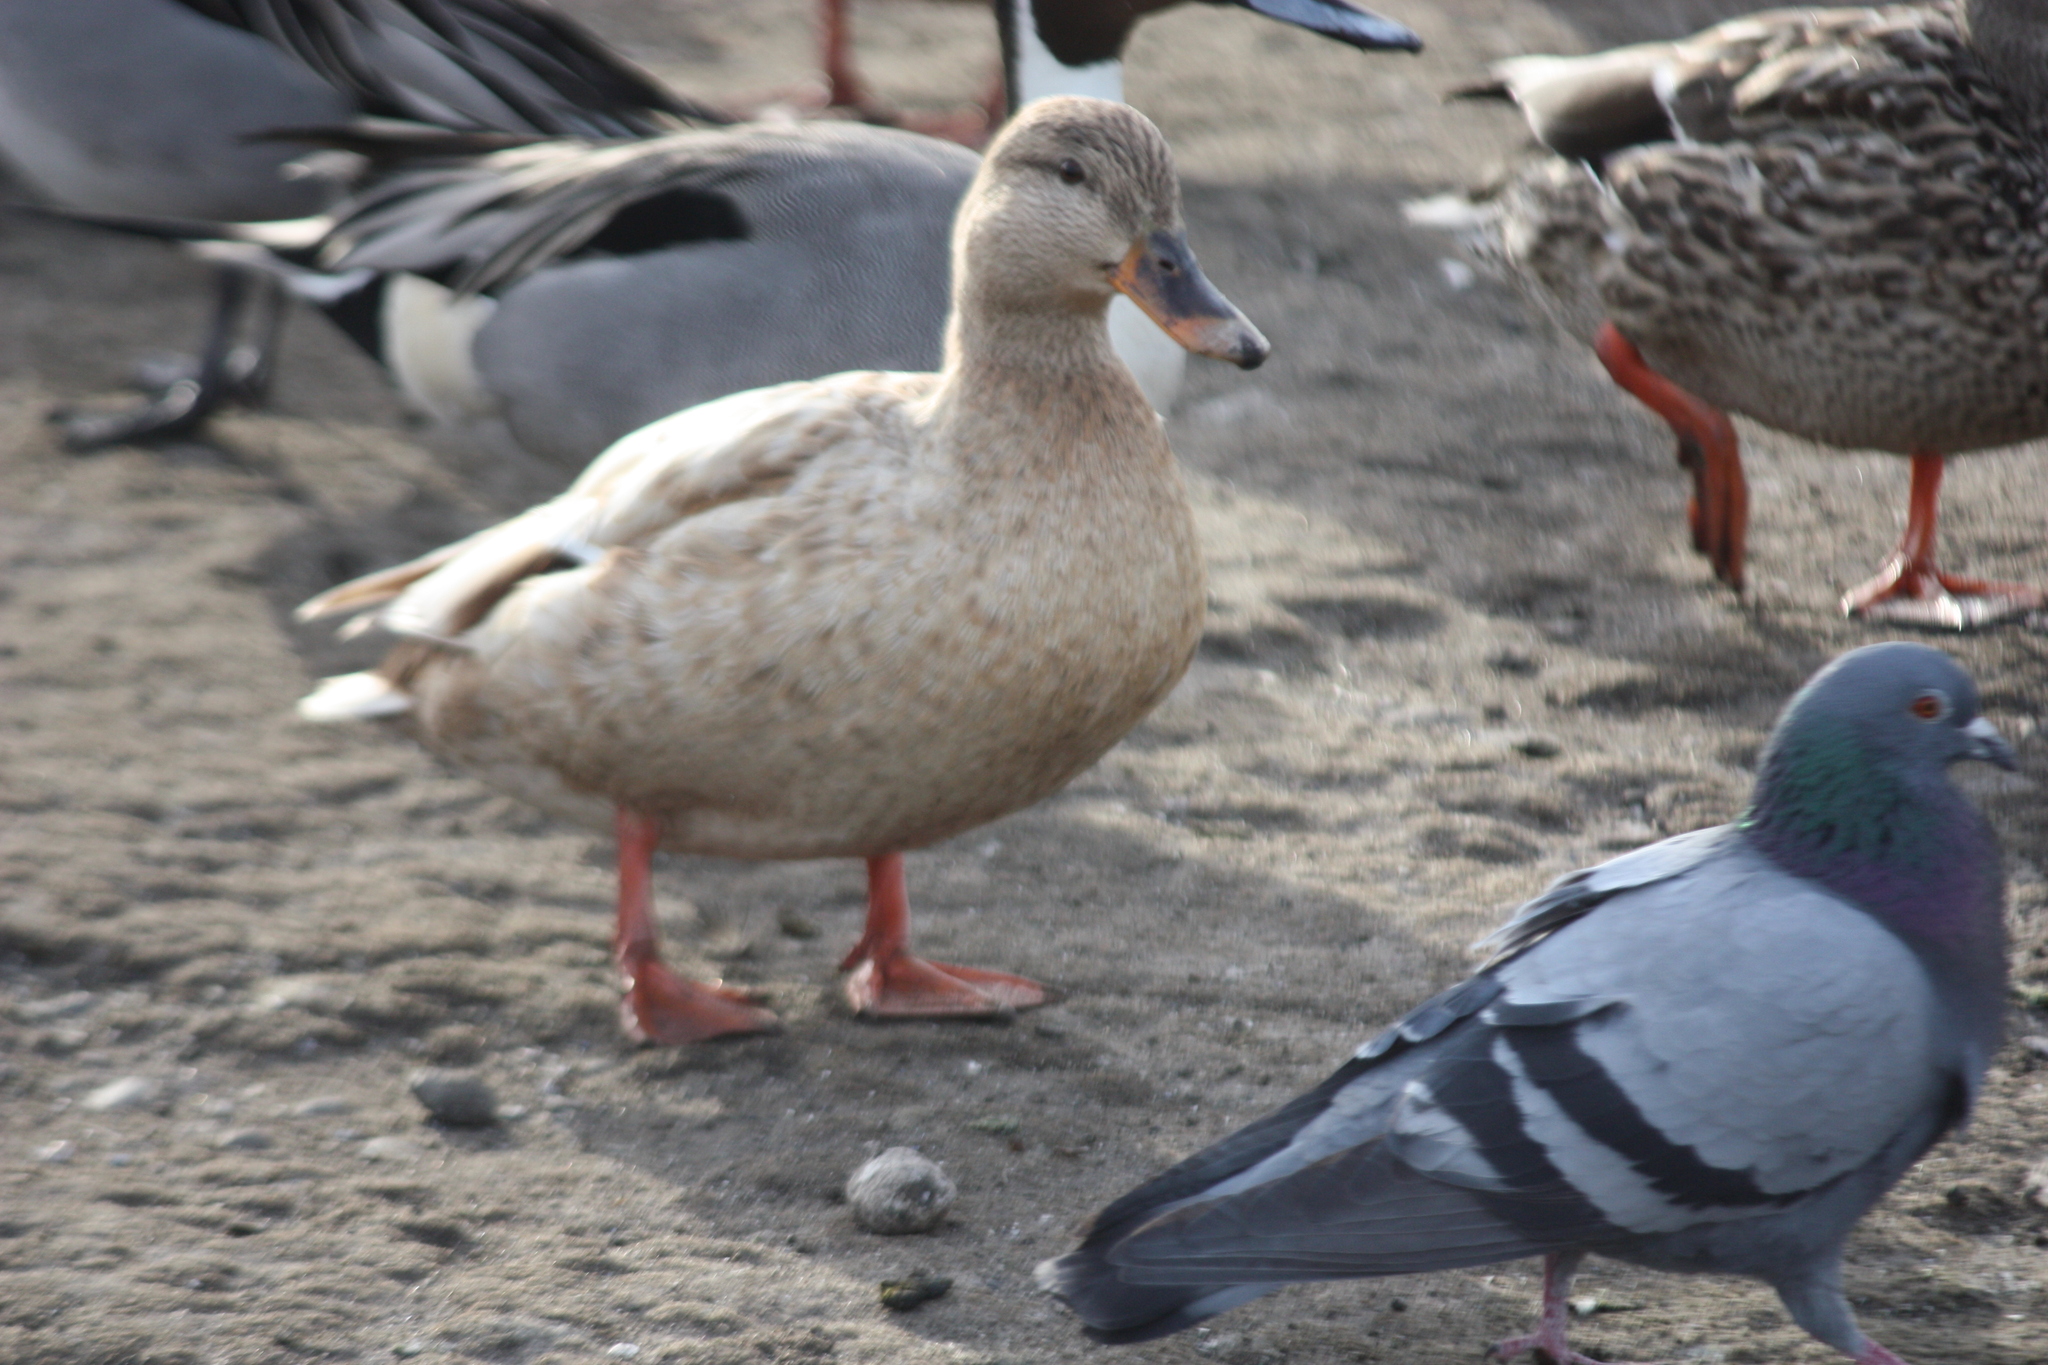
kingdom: Animalia
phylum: Chordata
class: Aves
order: Anseriformes
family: Anatidae
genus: Anas
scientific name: Anas platyrhynchos
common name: Mallard
